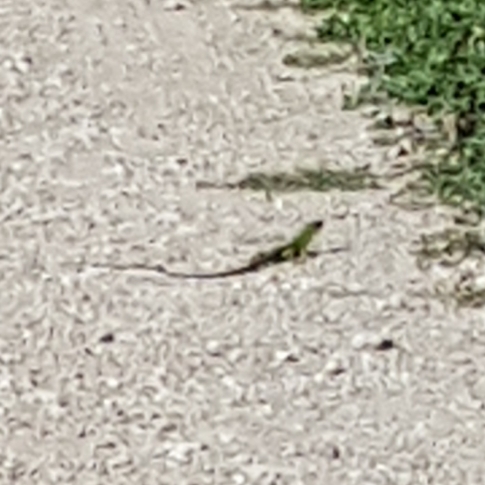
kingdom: Animalia
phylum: Chordata
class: Squamata
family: Lacertidae
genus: Lacerta
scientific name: Lacerta bilineata
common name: Western green lizard
